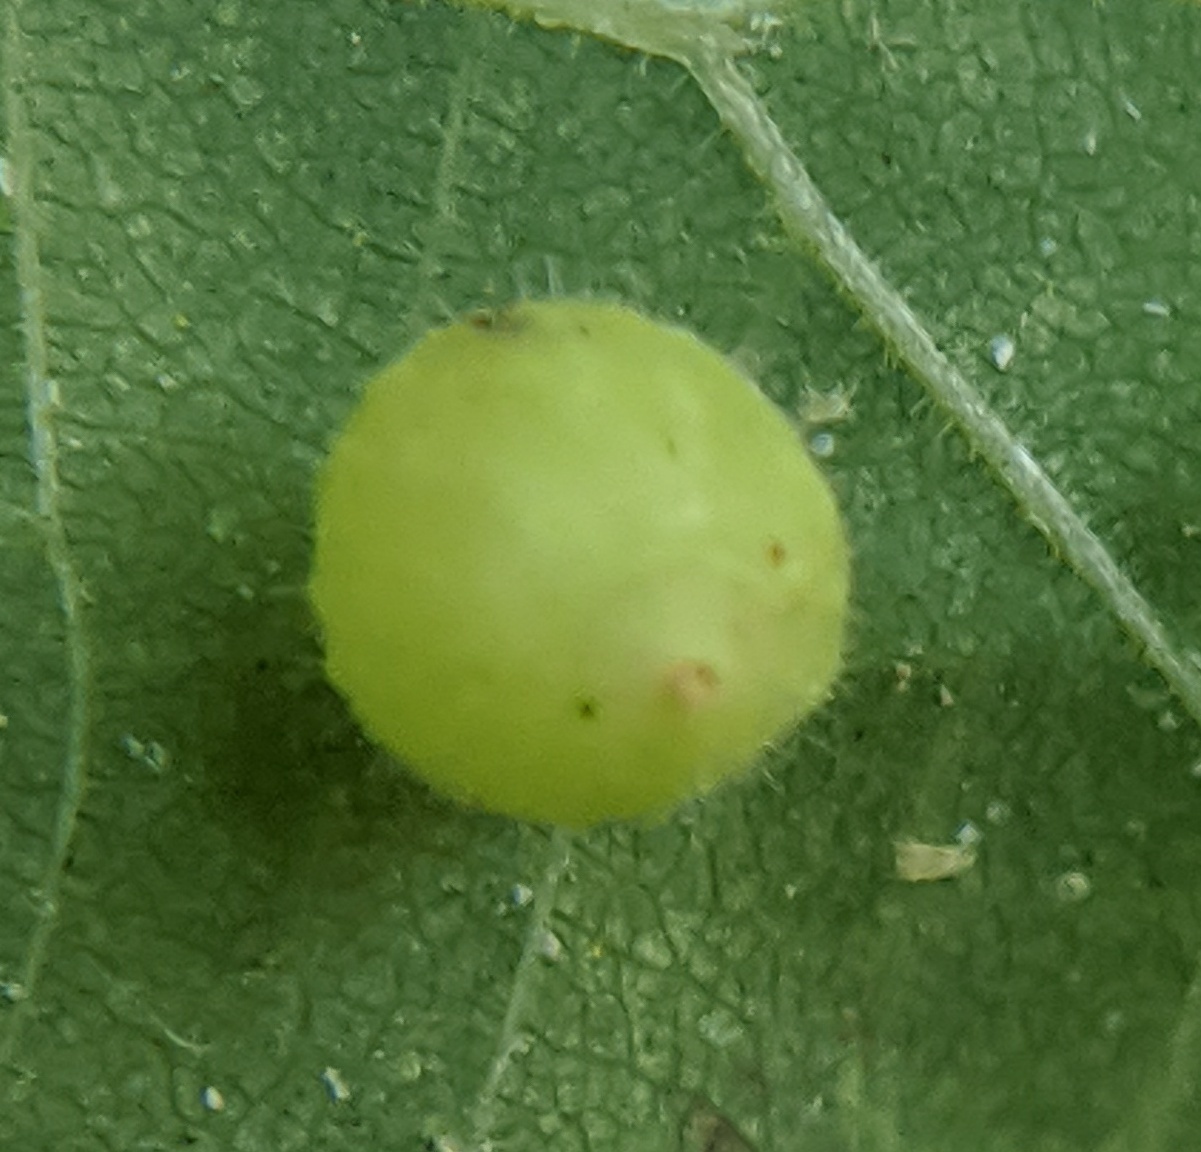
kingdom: Animalia
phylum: Arthropoda
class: Insecta
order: Diptera
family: Cecidomyiidae
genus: Caryomyia
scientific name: Caryomyia cilidolium
